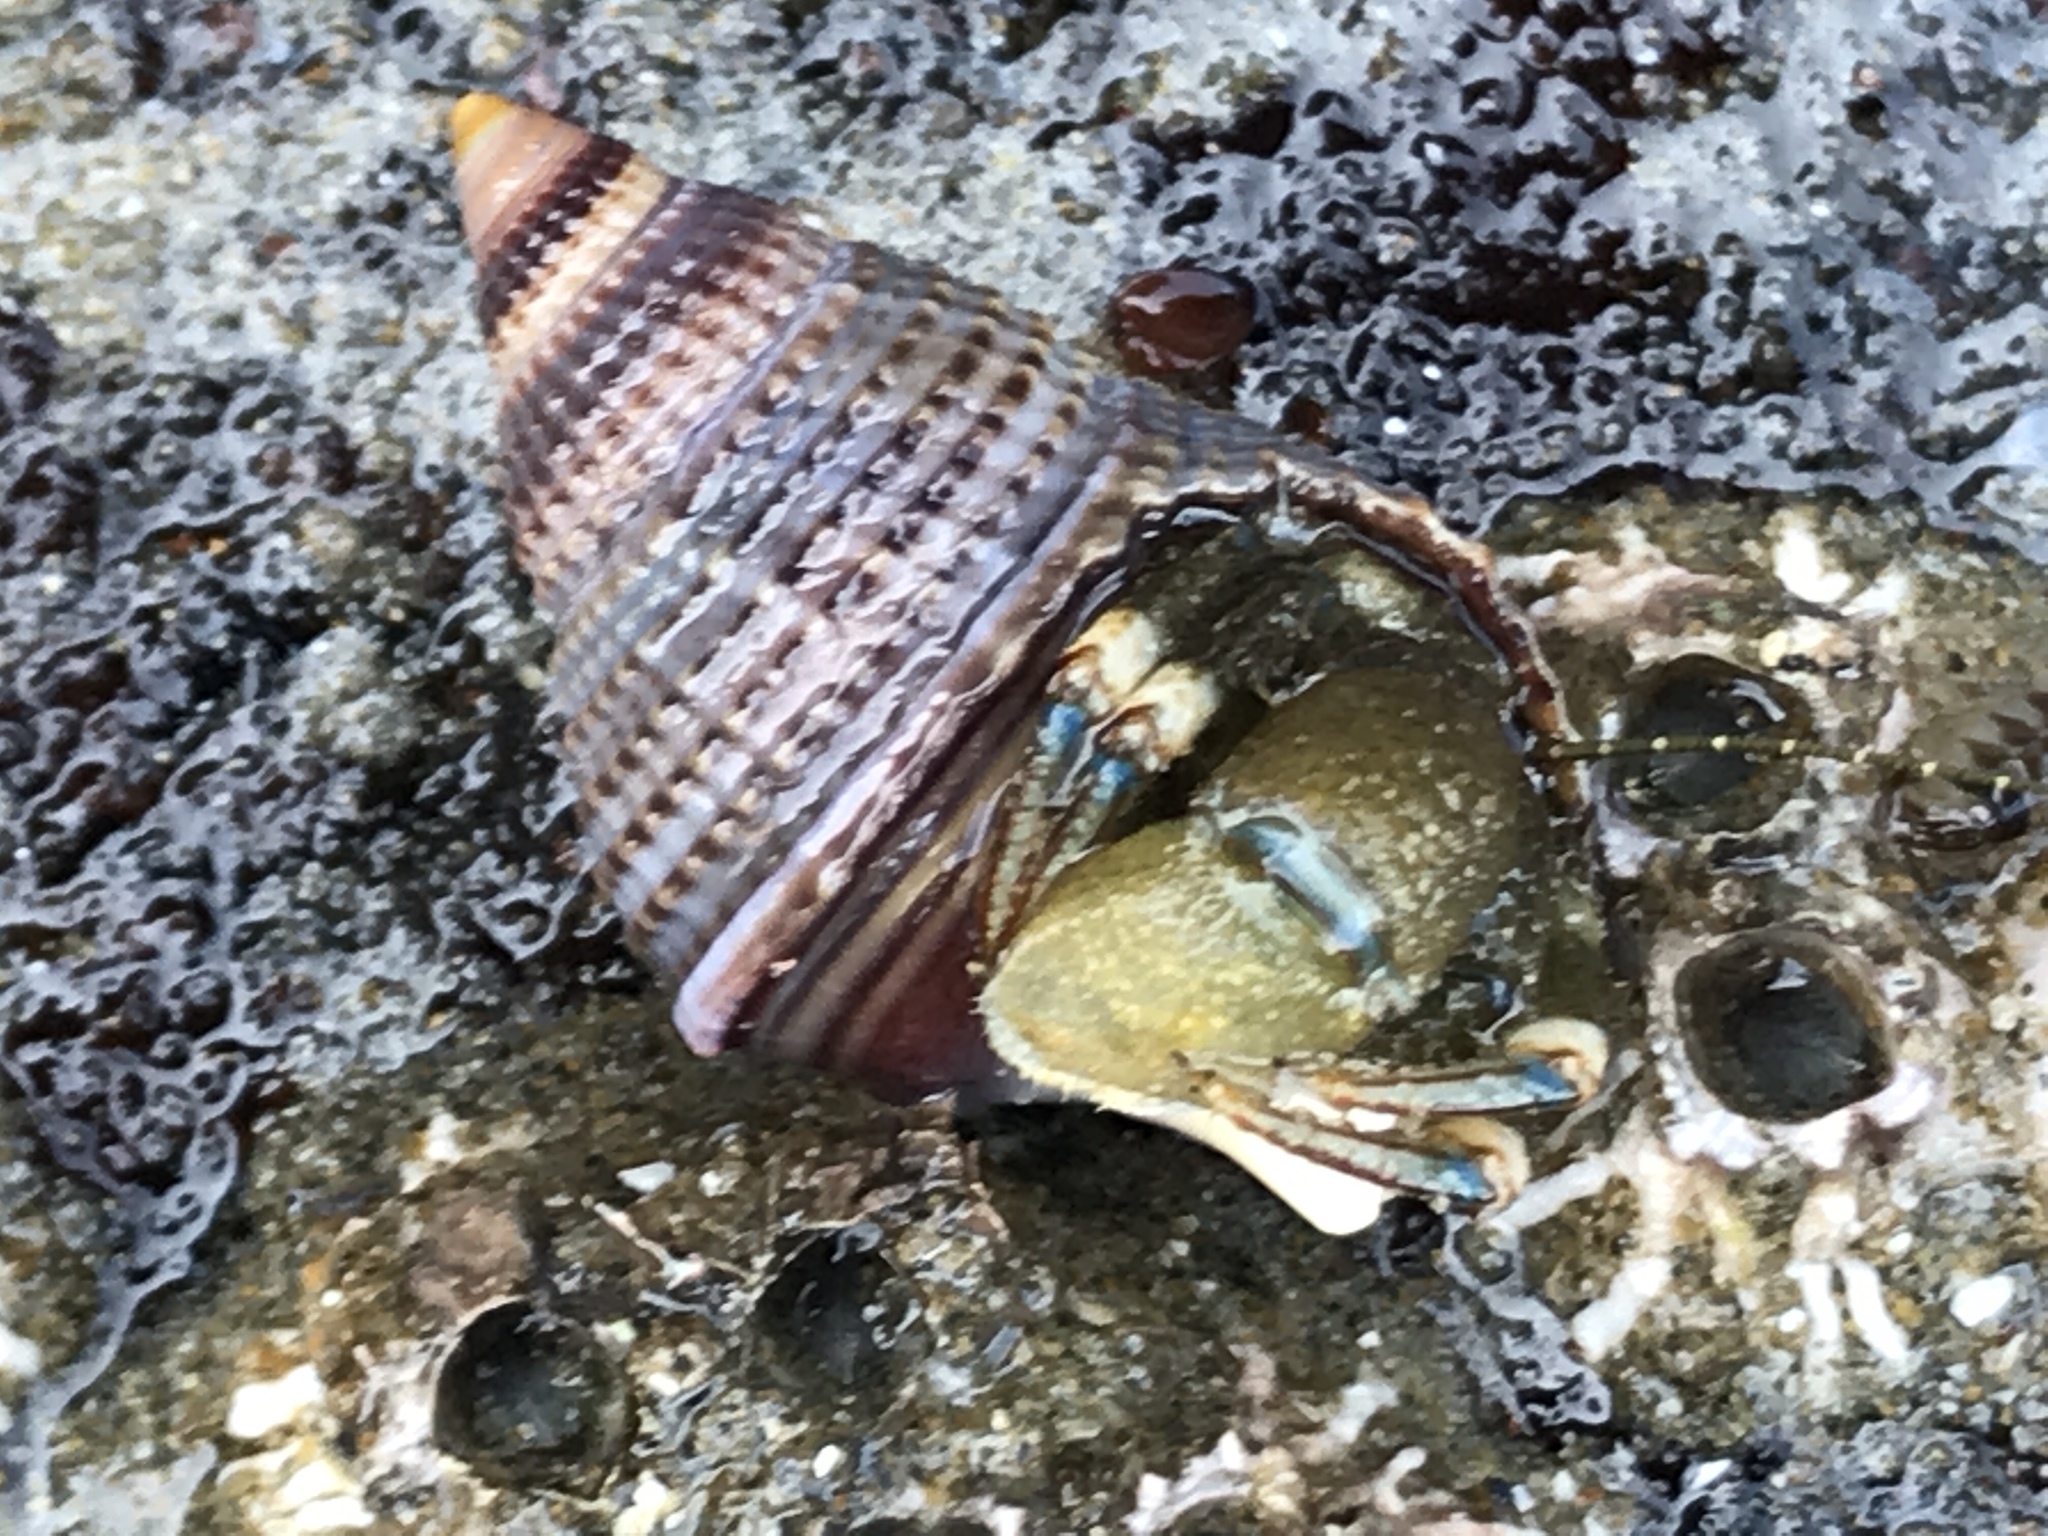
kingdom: Animalia
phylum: Arthropoda
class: Malacostraca
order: Decapoda
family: Paguridae
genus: Pagurus
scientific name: Pagurus hirsutiusculus
